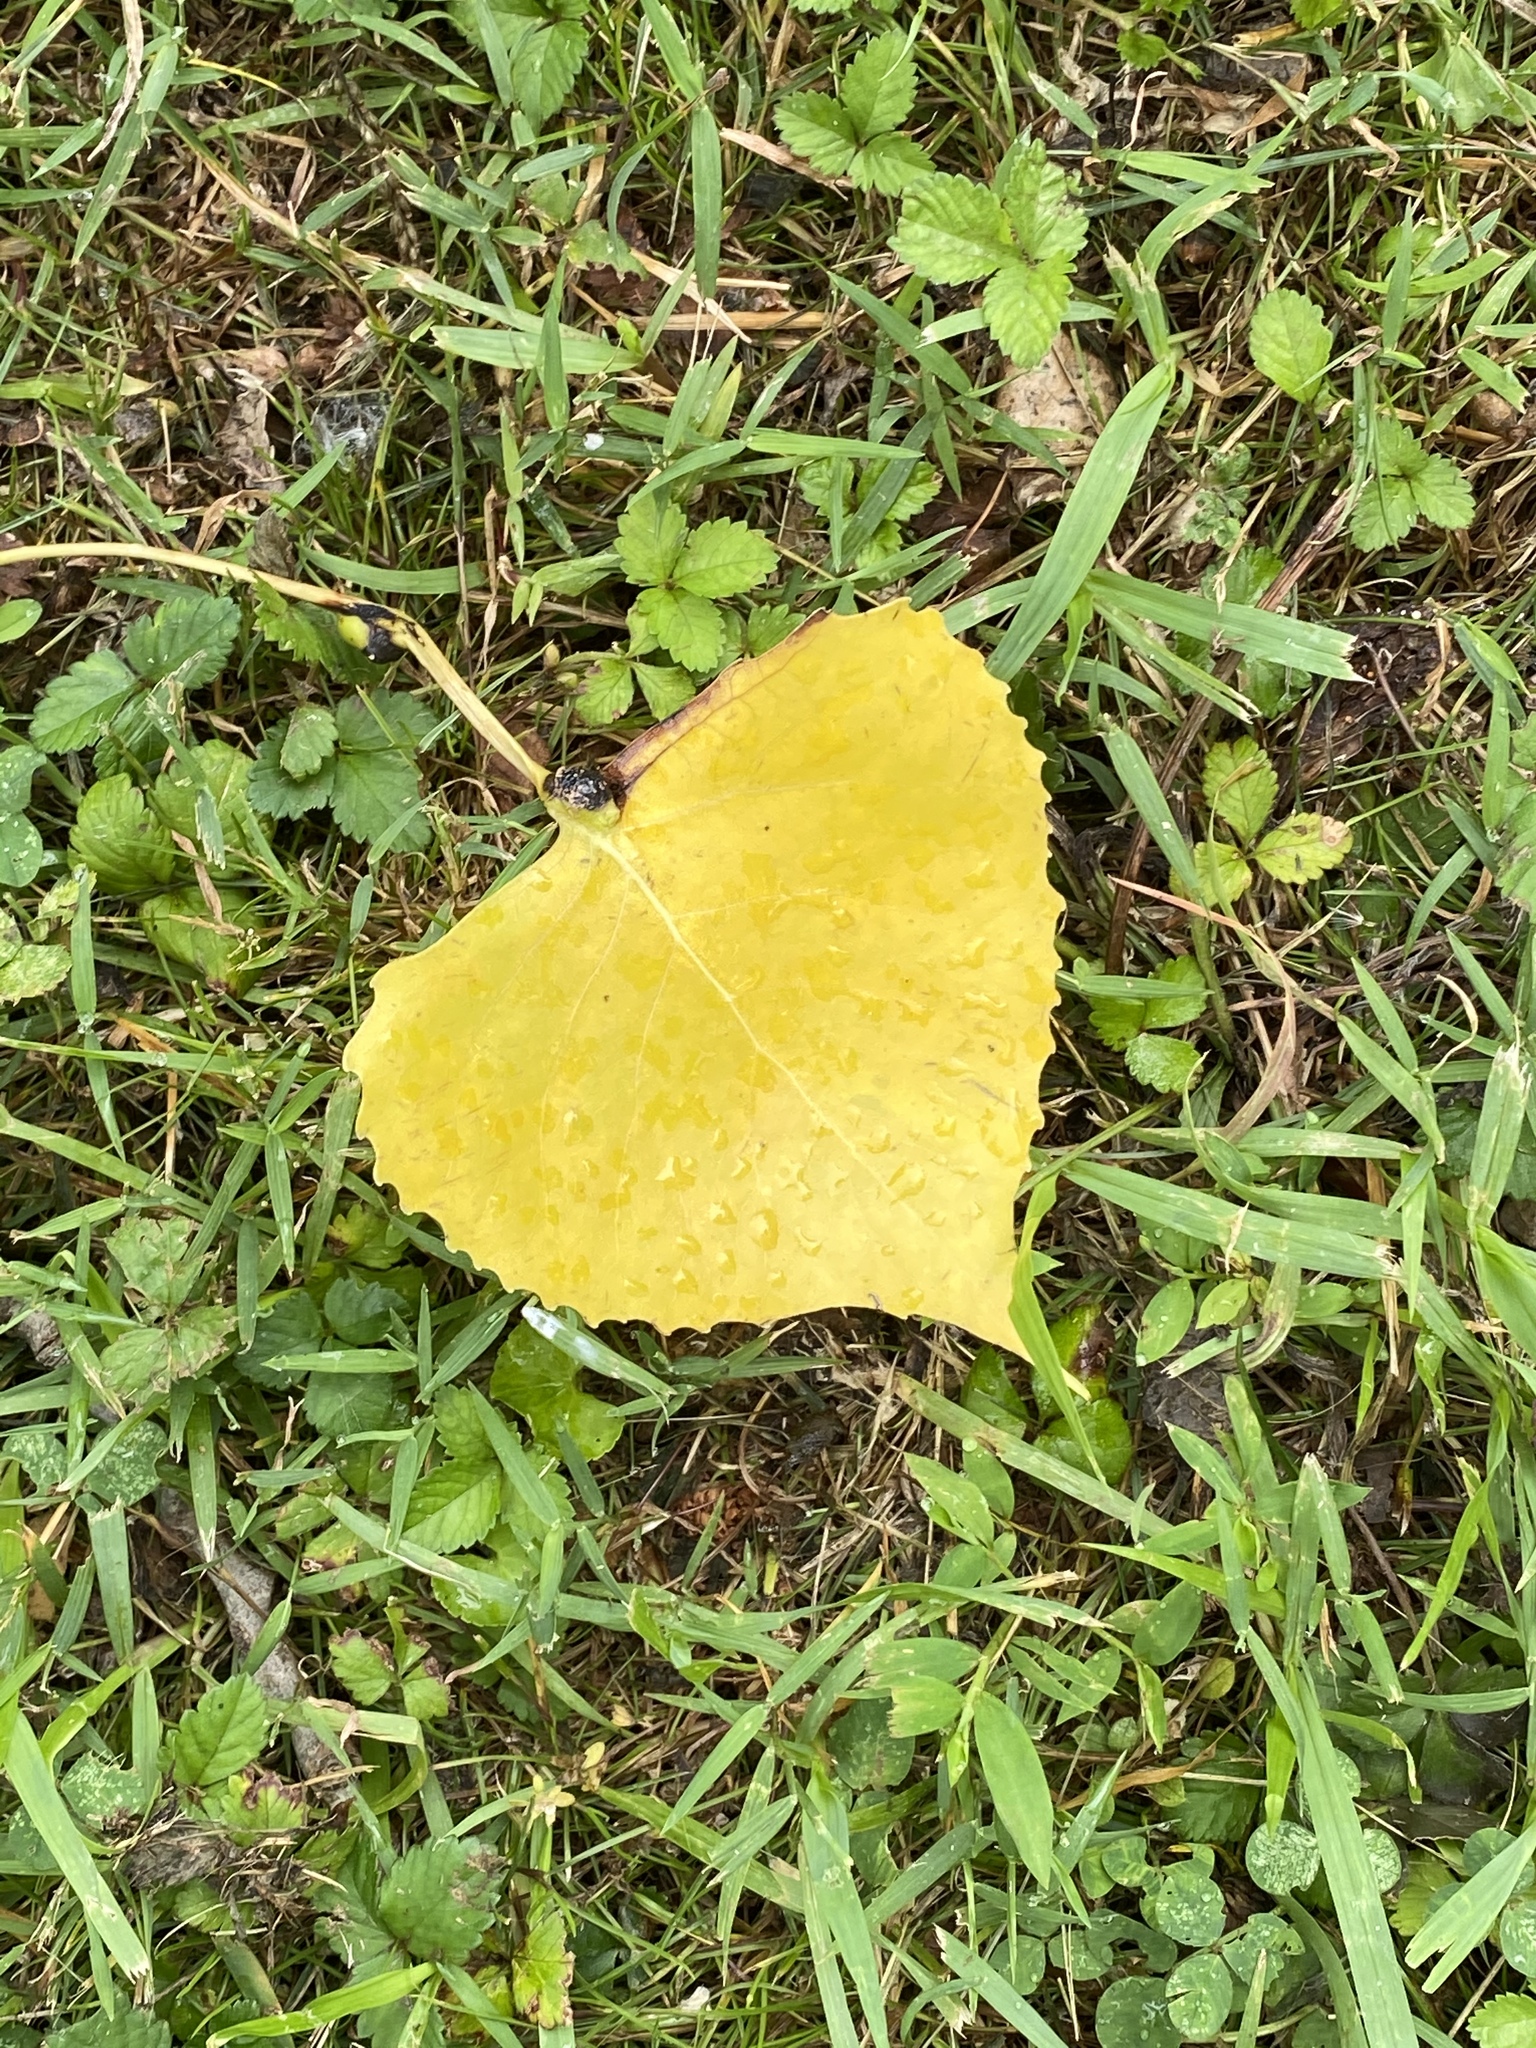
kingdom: Plantae
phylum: Tracheophyta
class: Magnoliopsida
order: Malpighiales
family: Salicaceae
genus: Populus
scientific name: Populus deltoides
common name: Eastern cottonwood
